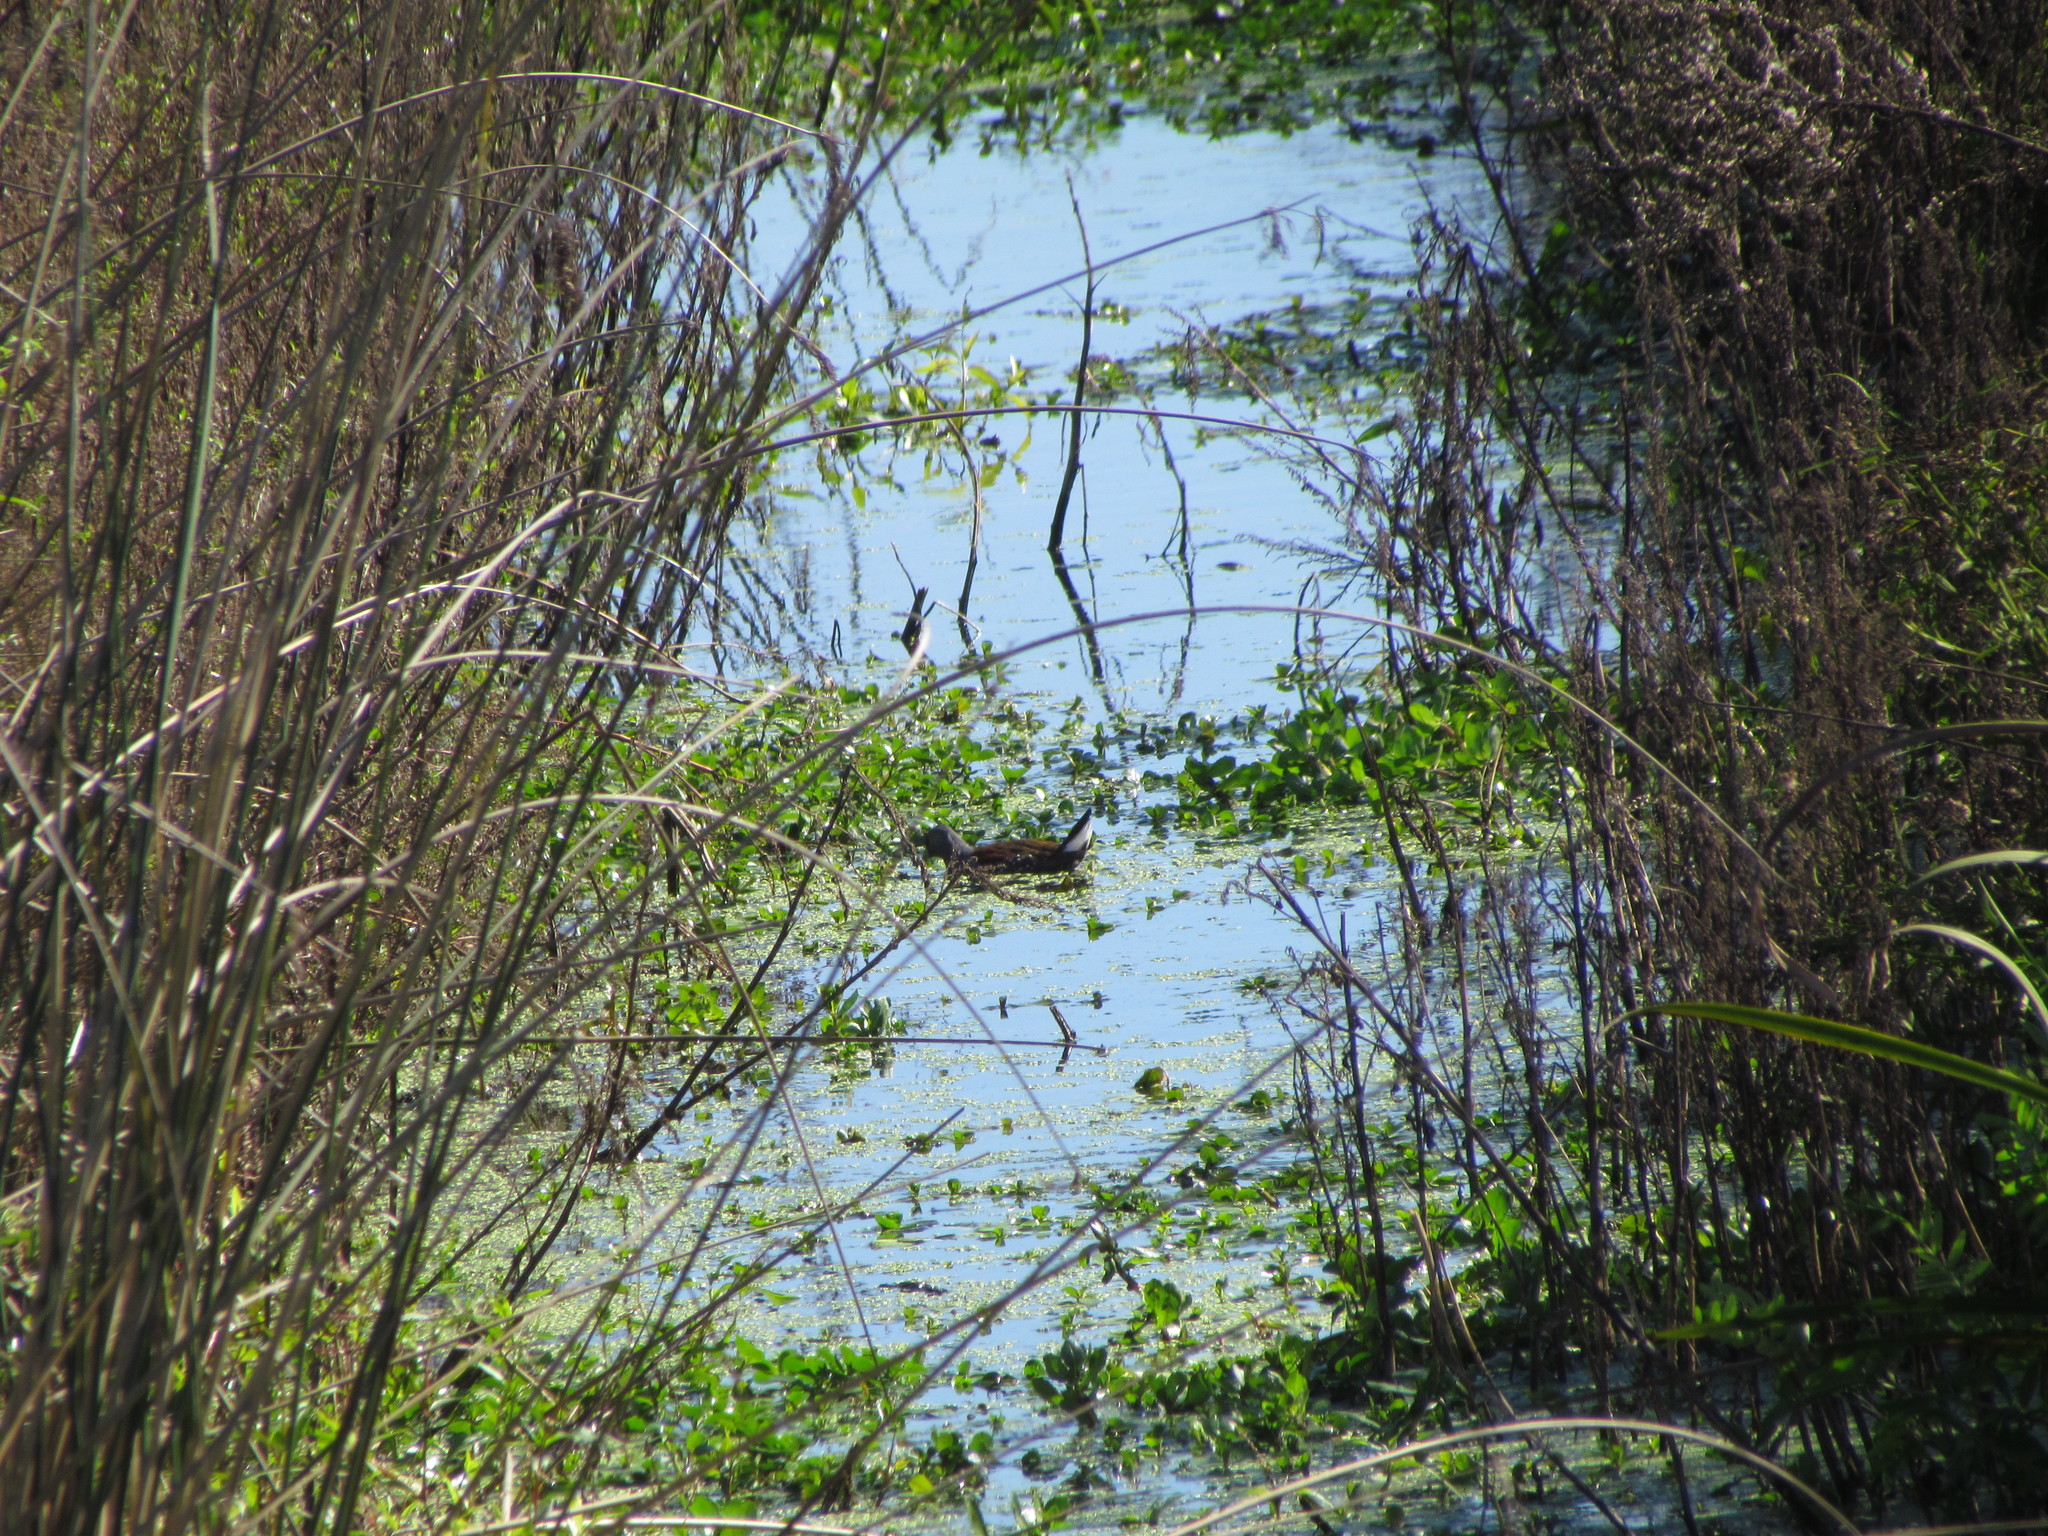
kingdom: Animalia
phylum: Chordata
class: Aves
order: Gruiformes
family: Rallidae
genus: Gallinula
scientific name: Gallinula melanops
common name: Spot-flanked gallinule
